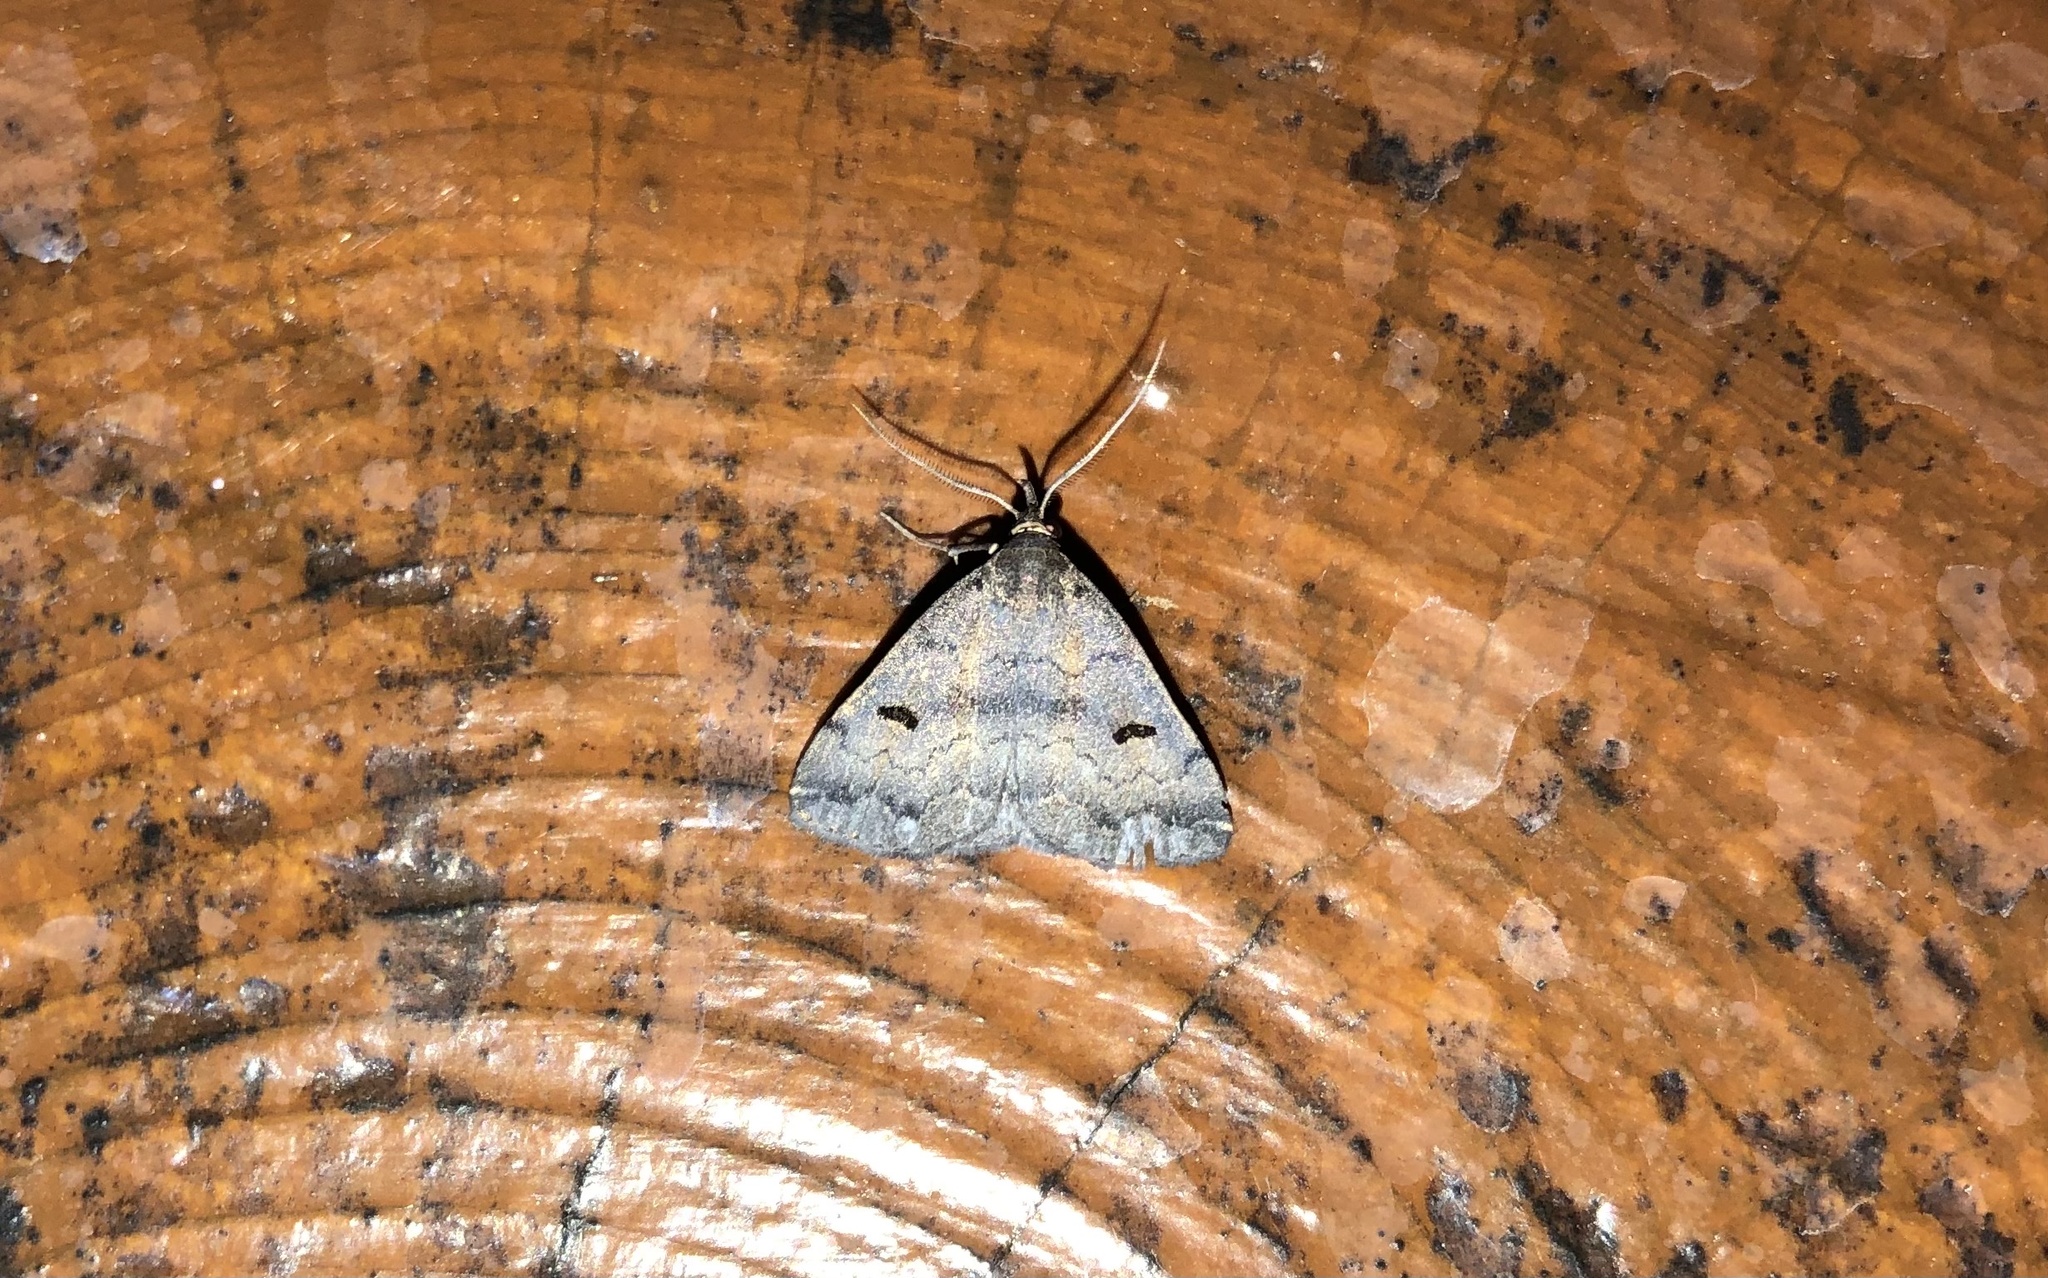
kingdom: Animalia
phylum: Arthropoda
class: Insecta
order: Lepidoptera
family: Erebidae
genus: Phalaenostola
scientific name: Phalaenostola hanhami
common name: Hanham's owlet
